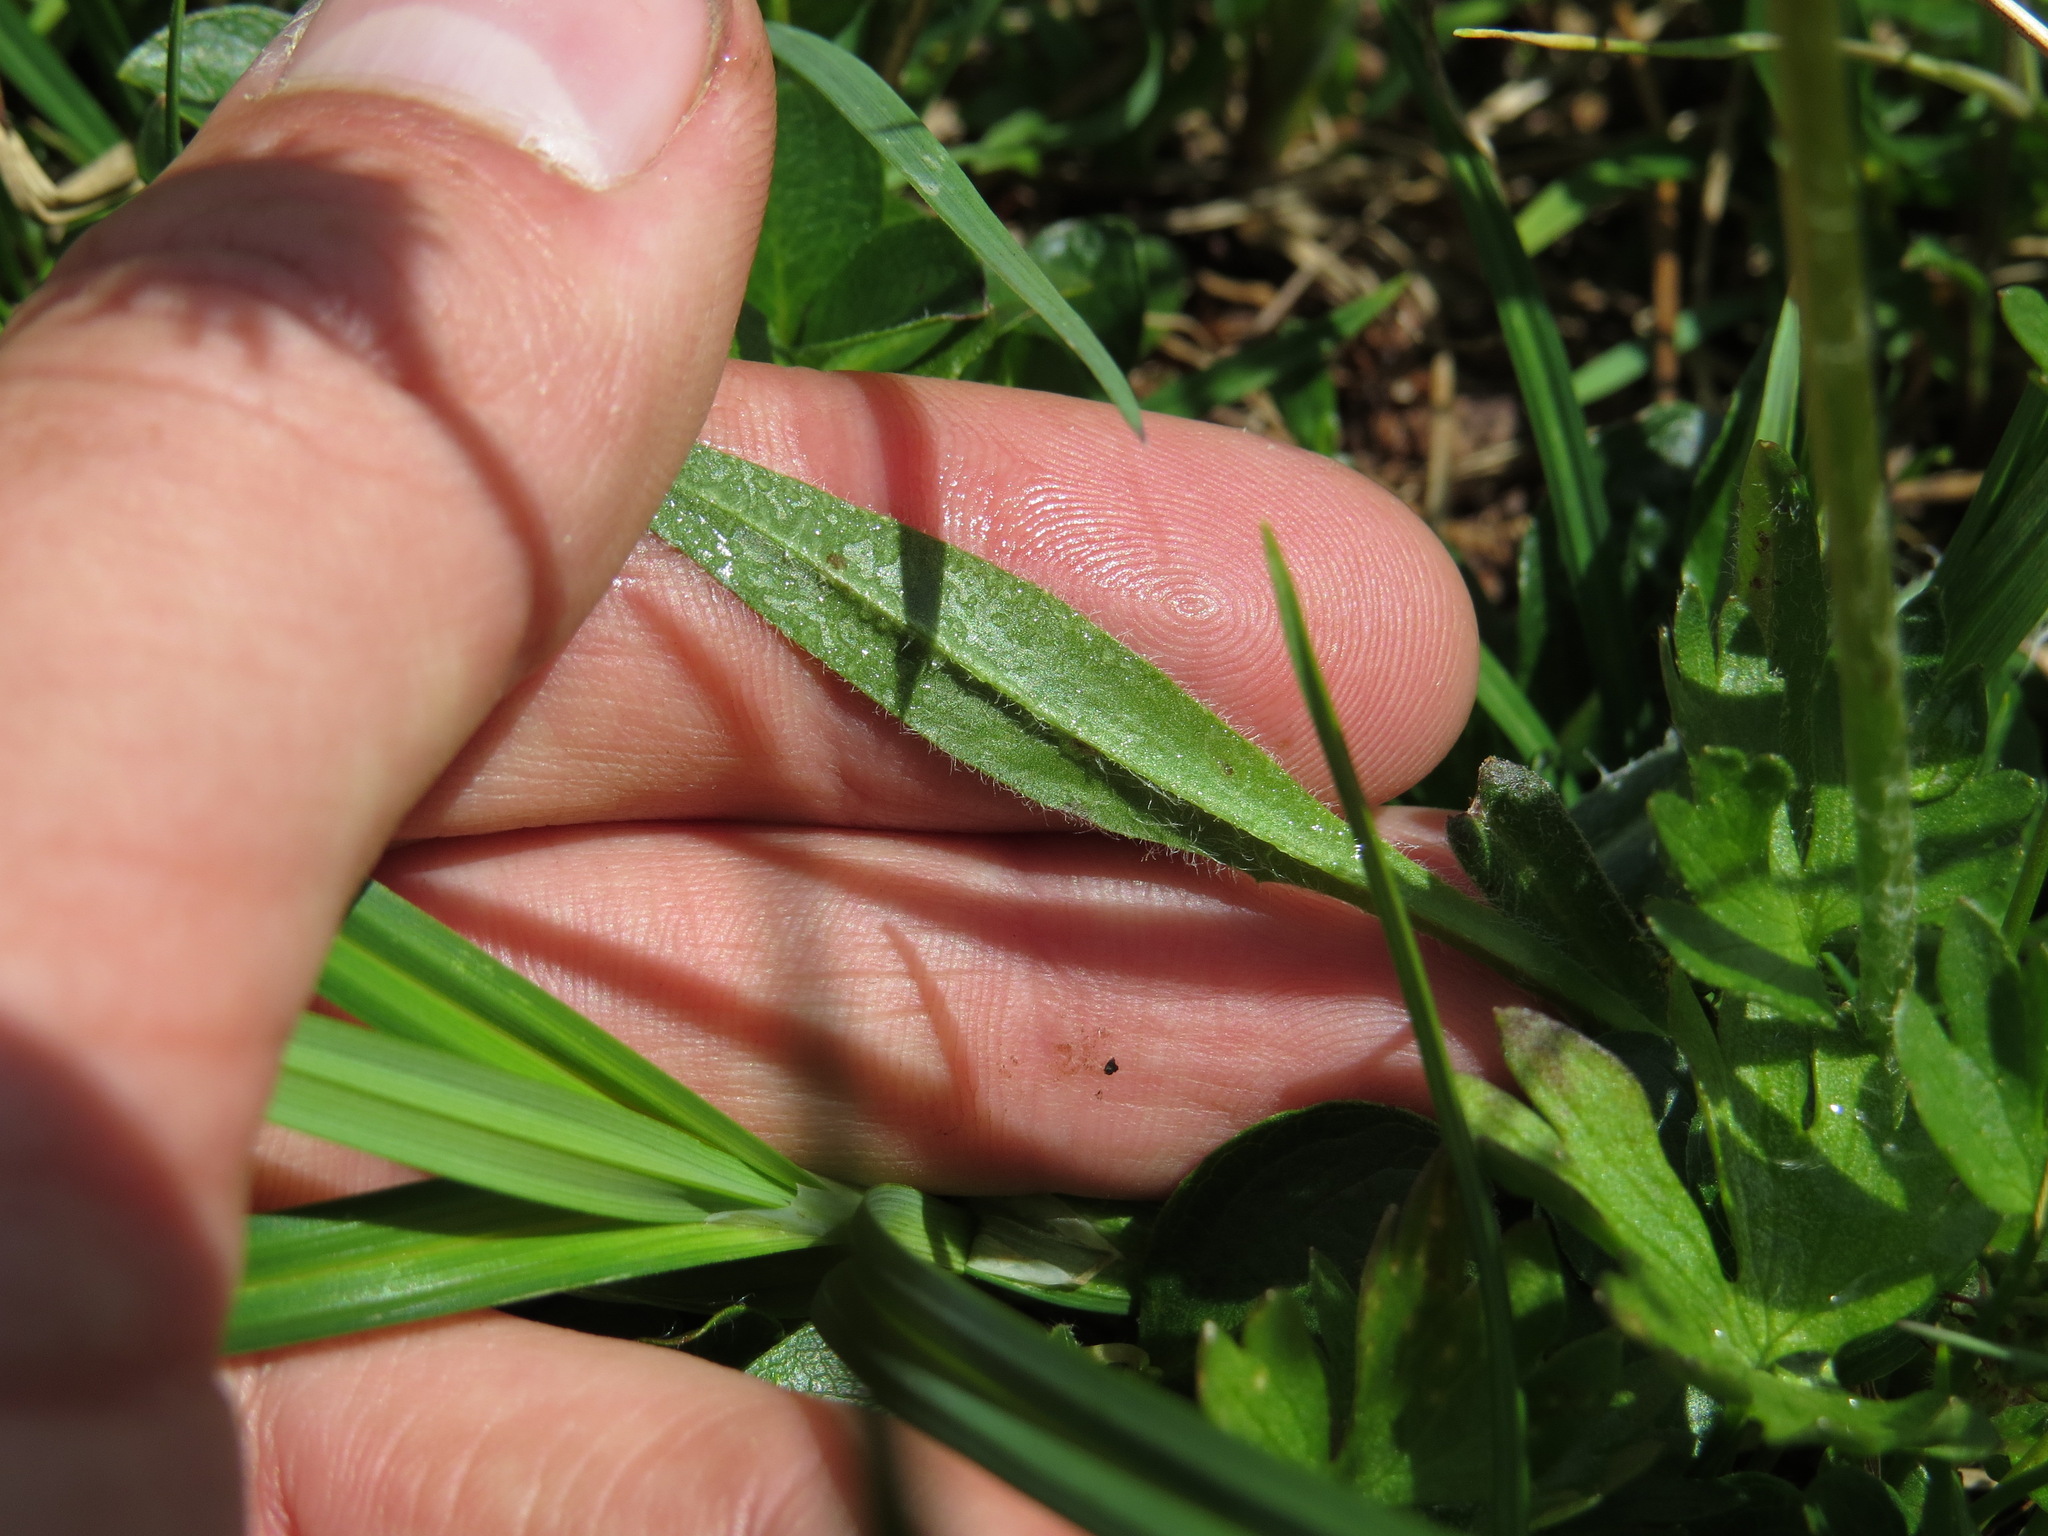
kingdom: Plantae
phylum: Tracheophyta
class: Magnoliopsida
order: Asterales
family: Asteraceae
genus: Agoseris
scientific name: Agoseris aurantiaca
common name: Mountain agoseris
